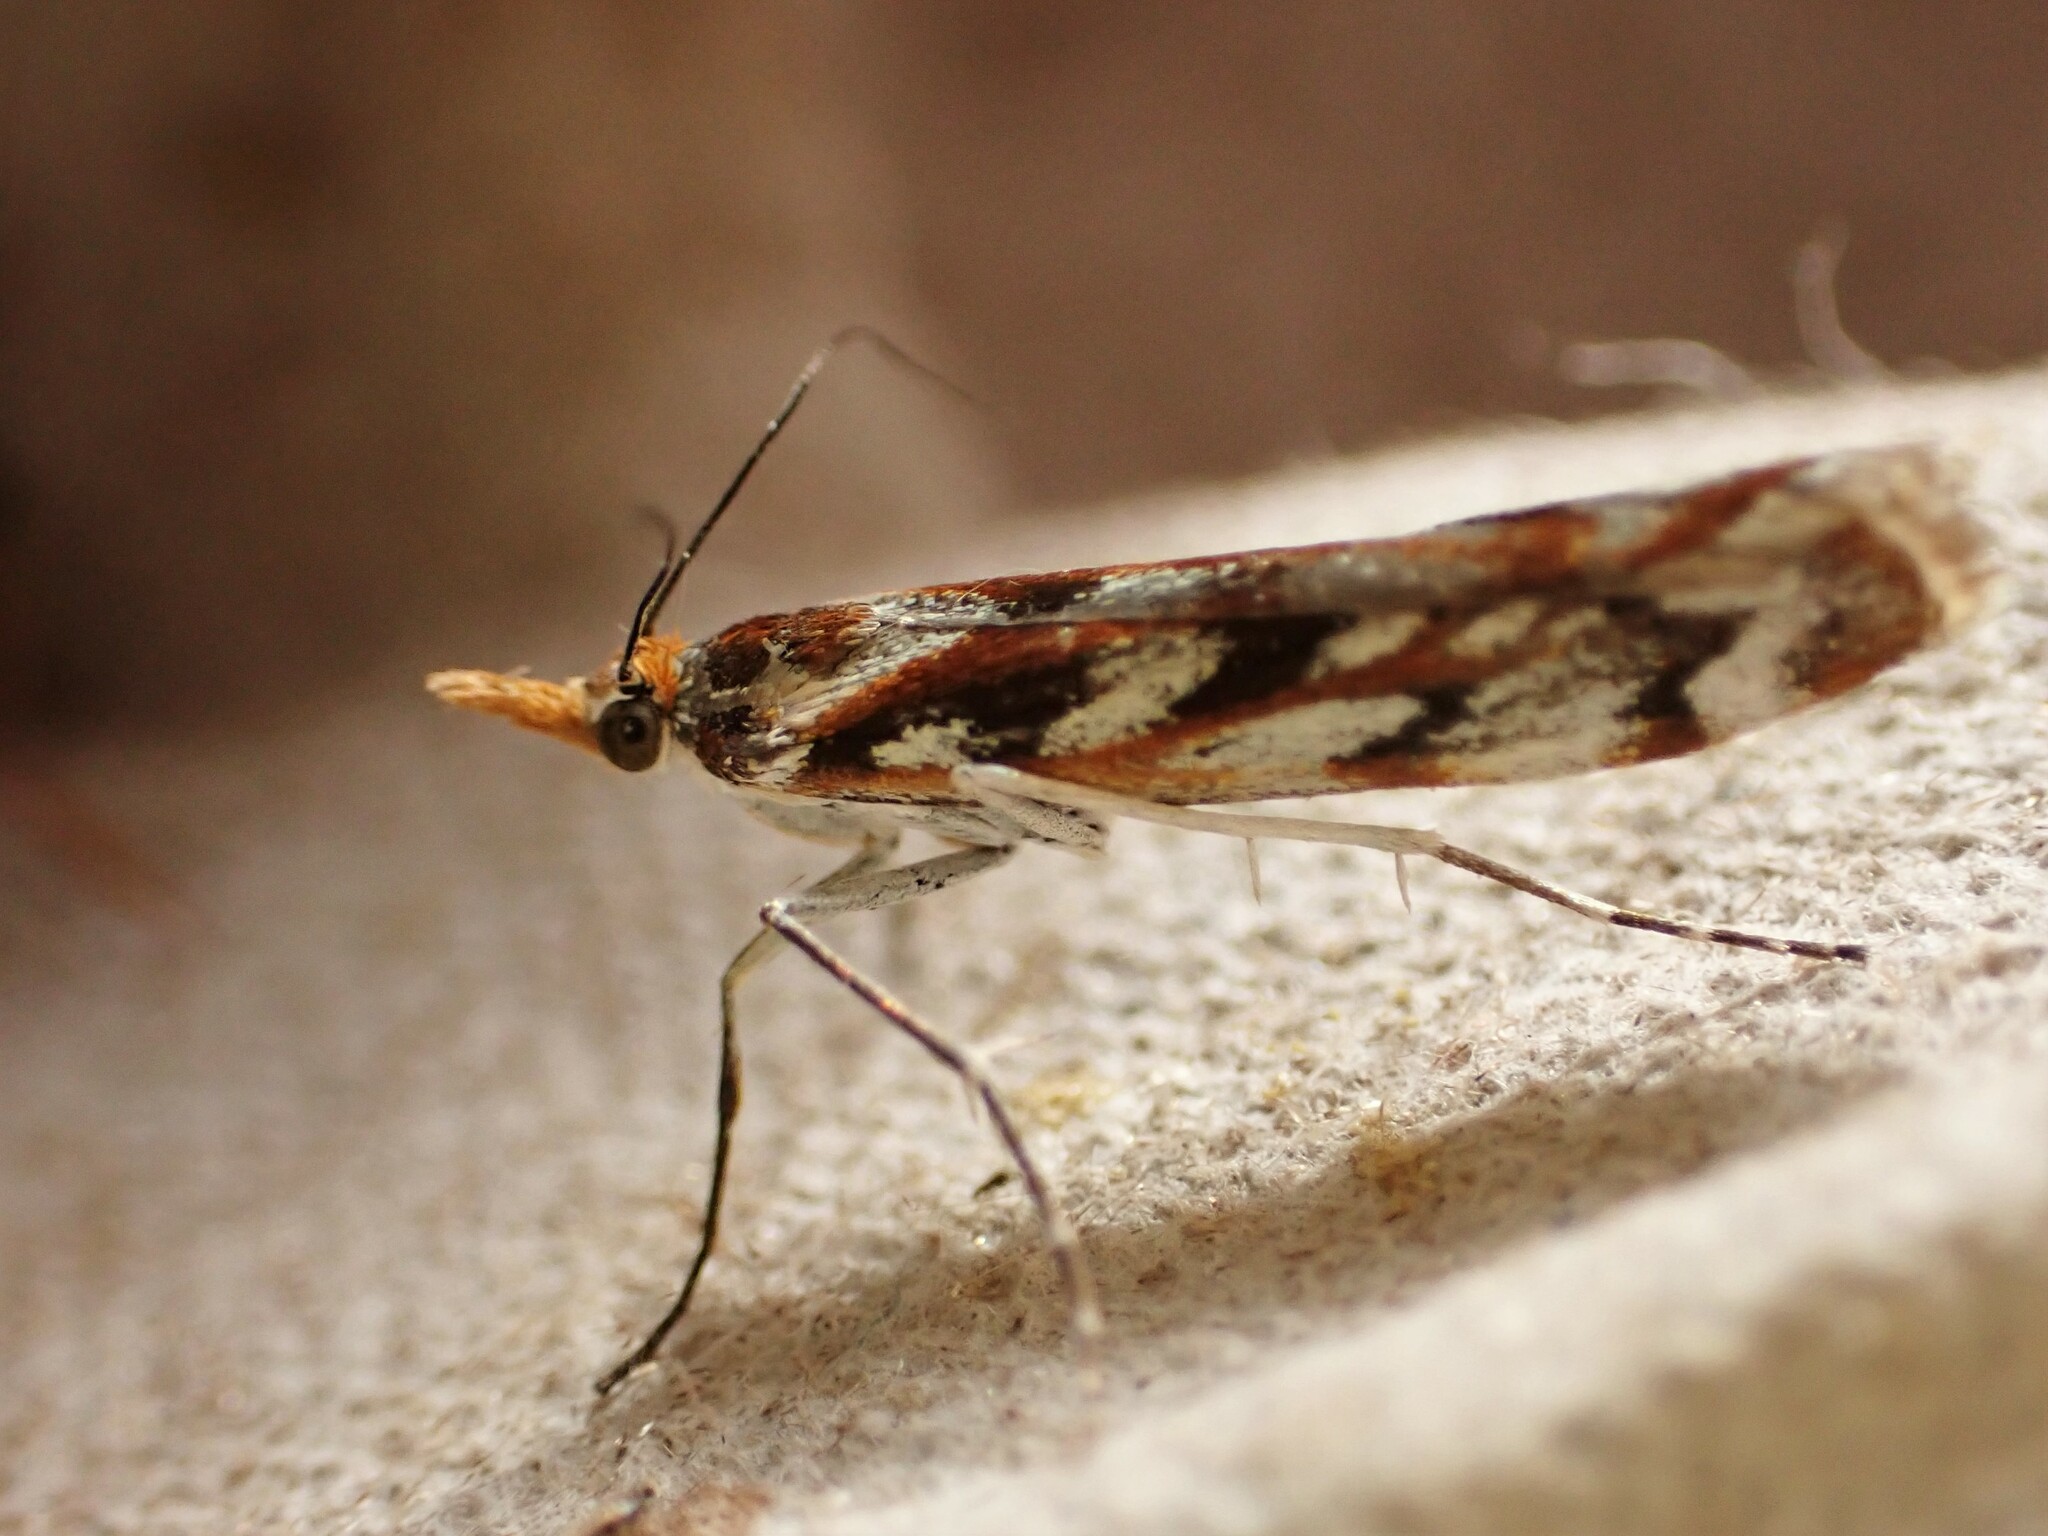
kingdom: Animalia
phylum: Arthropoda
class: Insecta
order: Lepidoptera
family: Crambidae
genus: Orocrambus
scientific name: Orocrambus xanthogrammus
